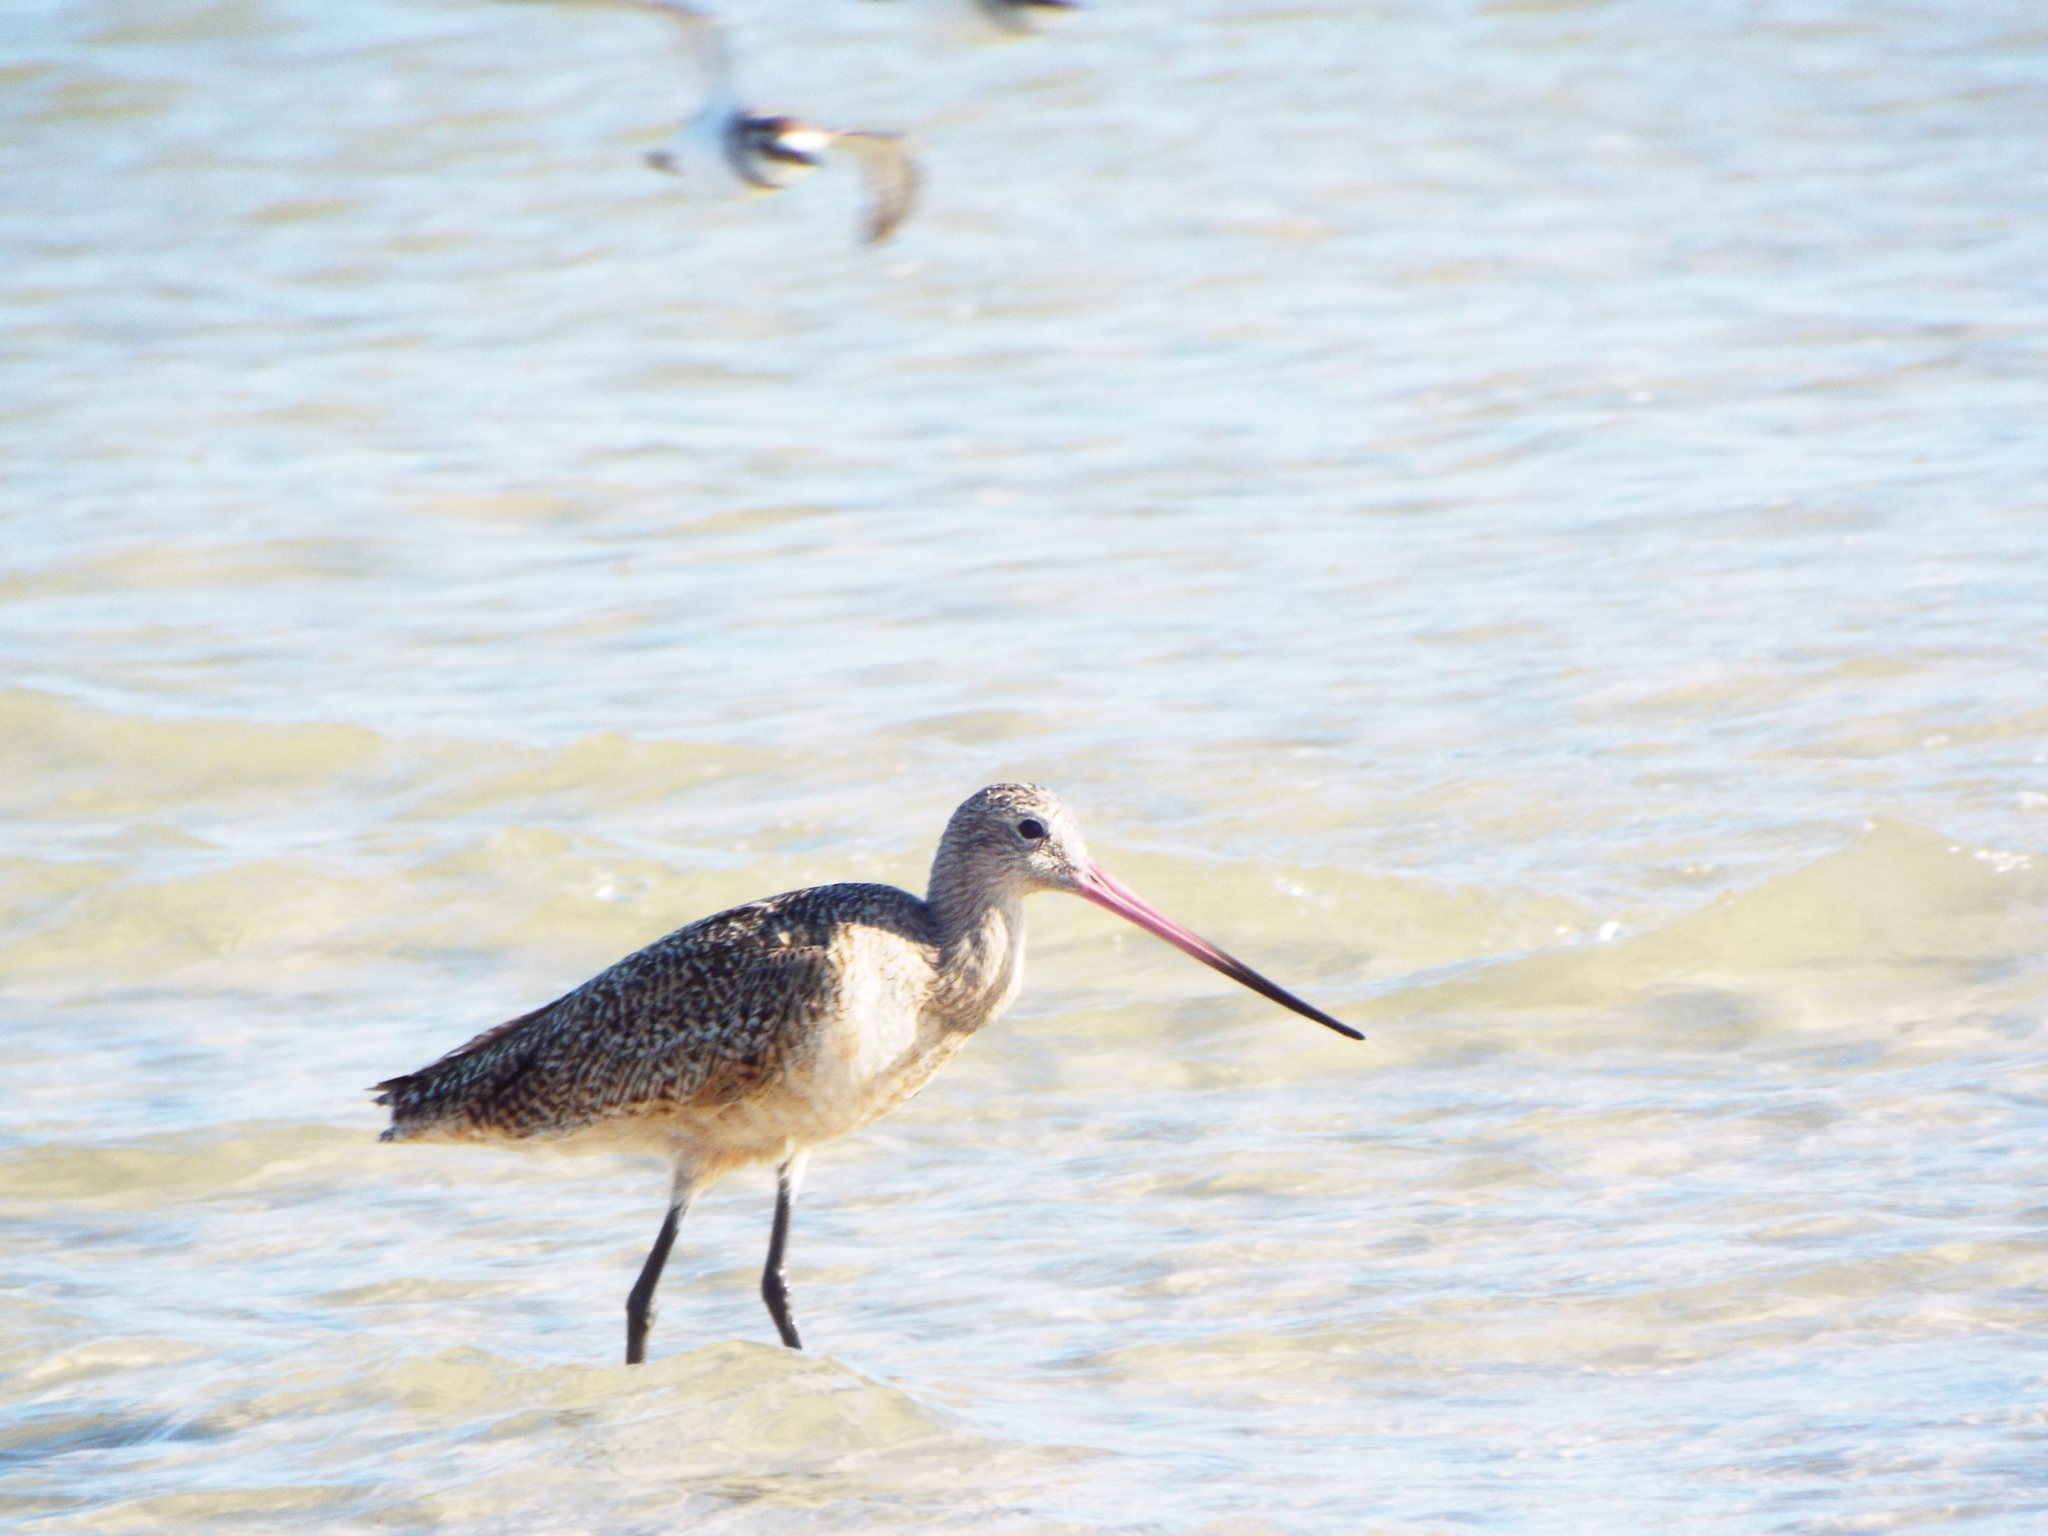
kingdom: Animalia
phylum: Chordata
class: Aves
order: Charadriiformes
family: Scolopacidae
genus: Limosa
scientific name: Limosa fedoa
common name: Marbled godwit
